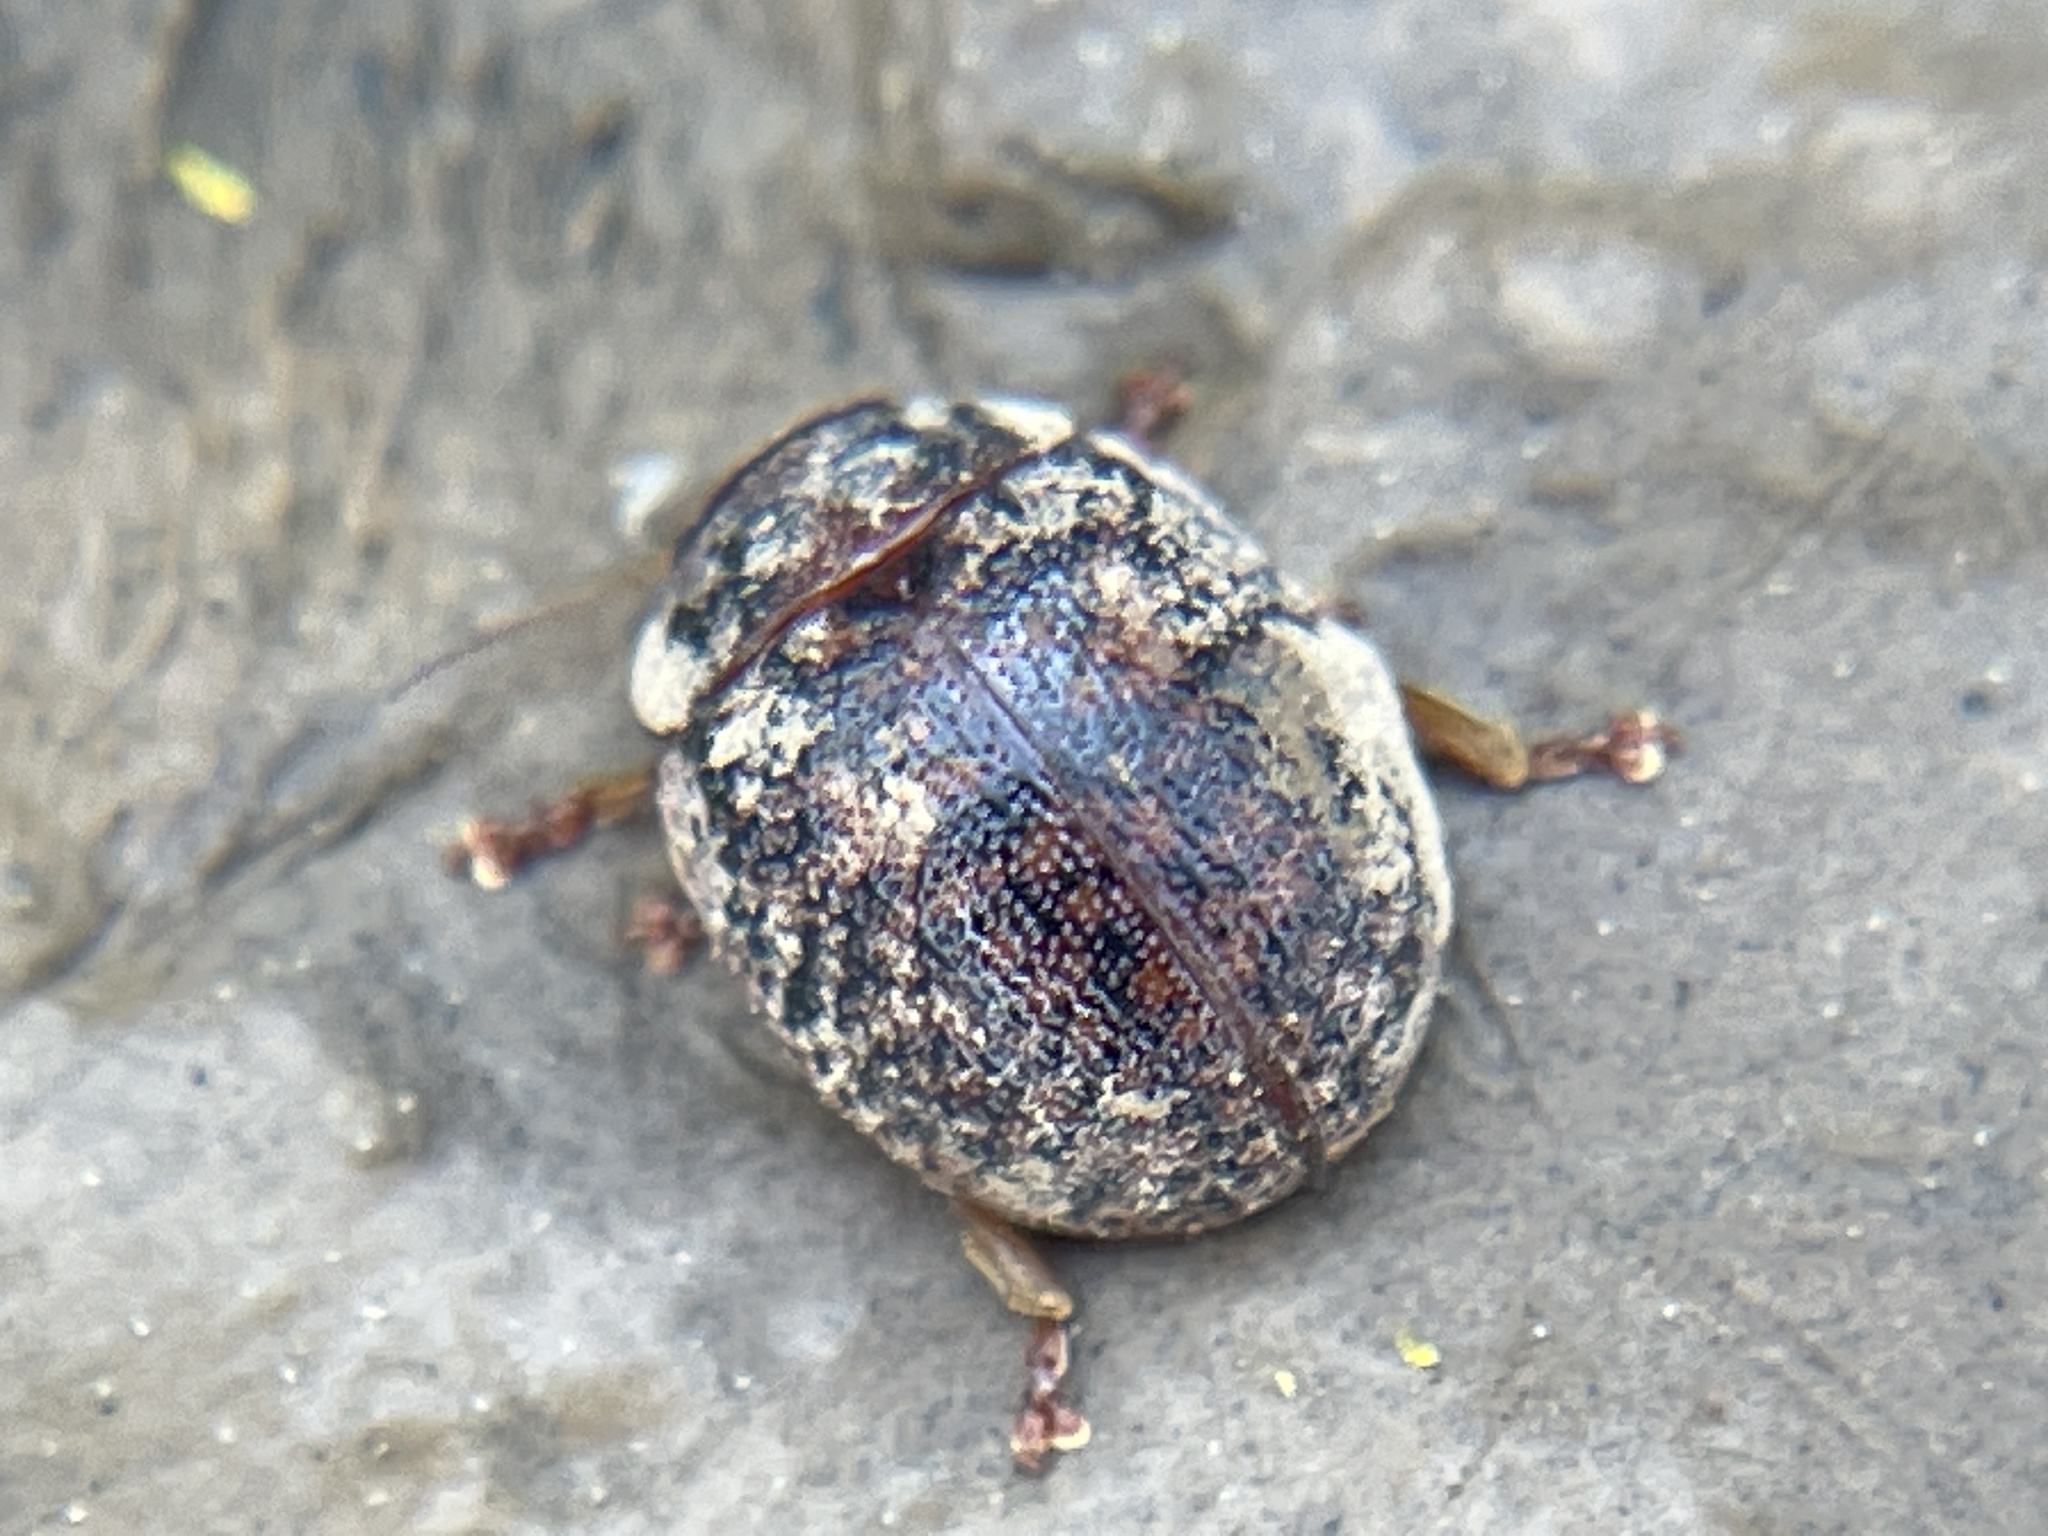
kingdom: Animalia
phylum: Arthropoda
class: Insecta
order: Coleoptera
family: Chrysomelidae
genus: Trachymela
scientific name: Trachymela sloanei
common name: Australian tortoise beetle
